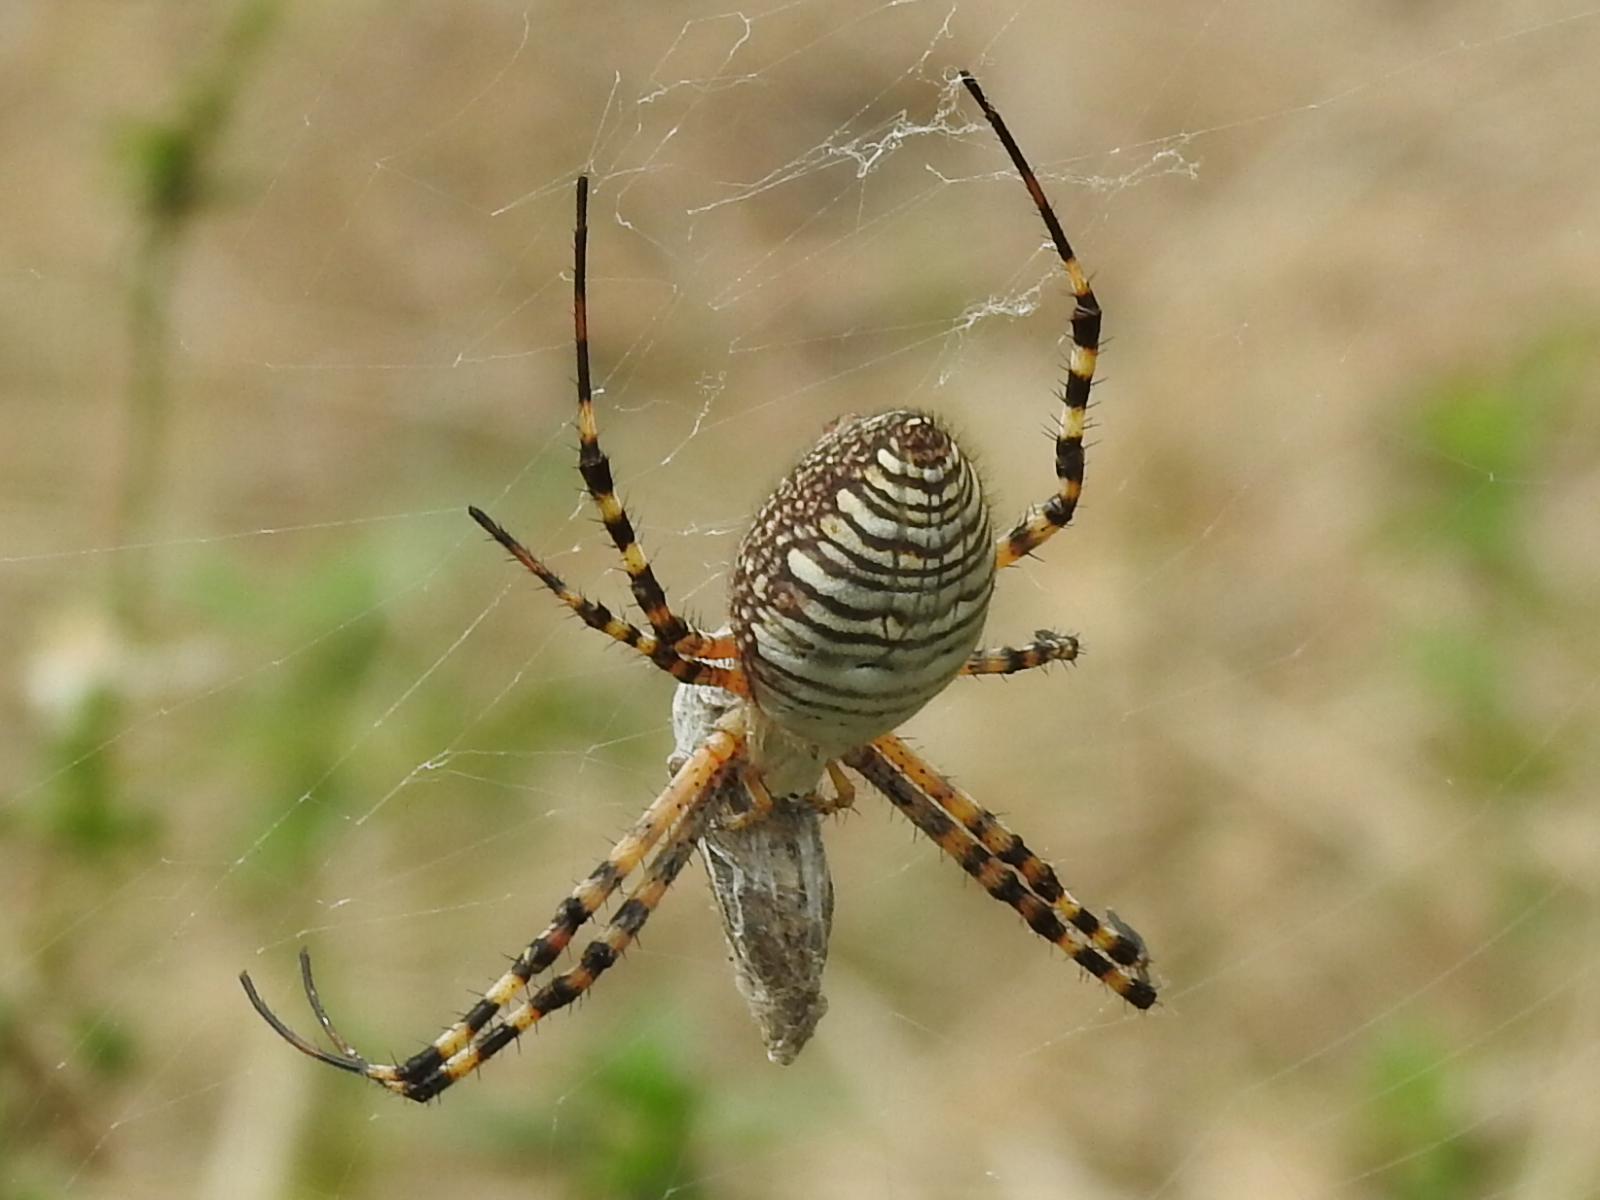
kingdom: Animalia
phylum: Arthropoda
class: Arachnida
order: Araneae
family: Araneidae
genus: Argiope
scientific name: Argiope trifasciata
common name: Banded garden spider
